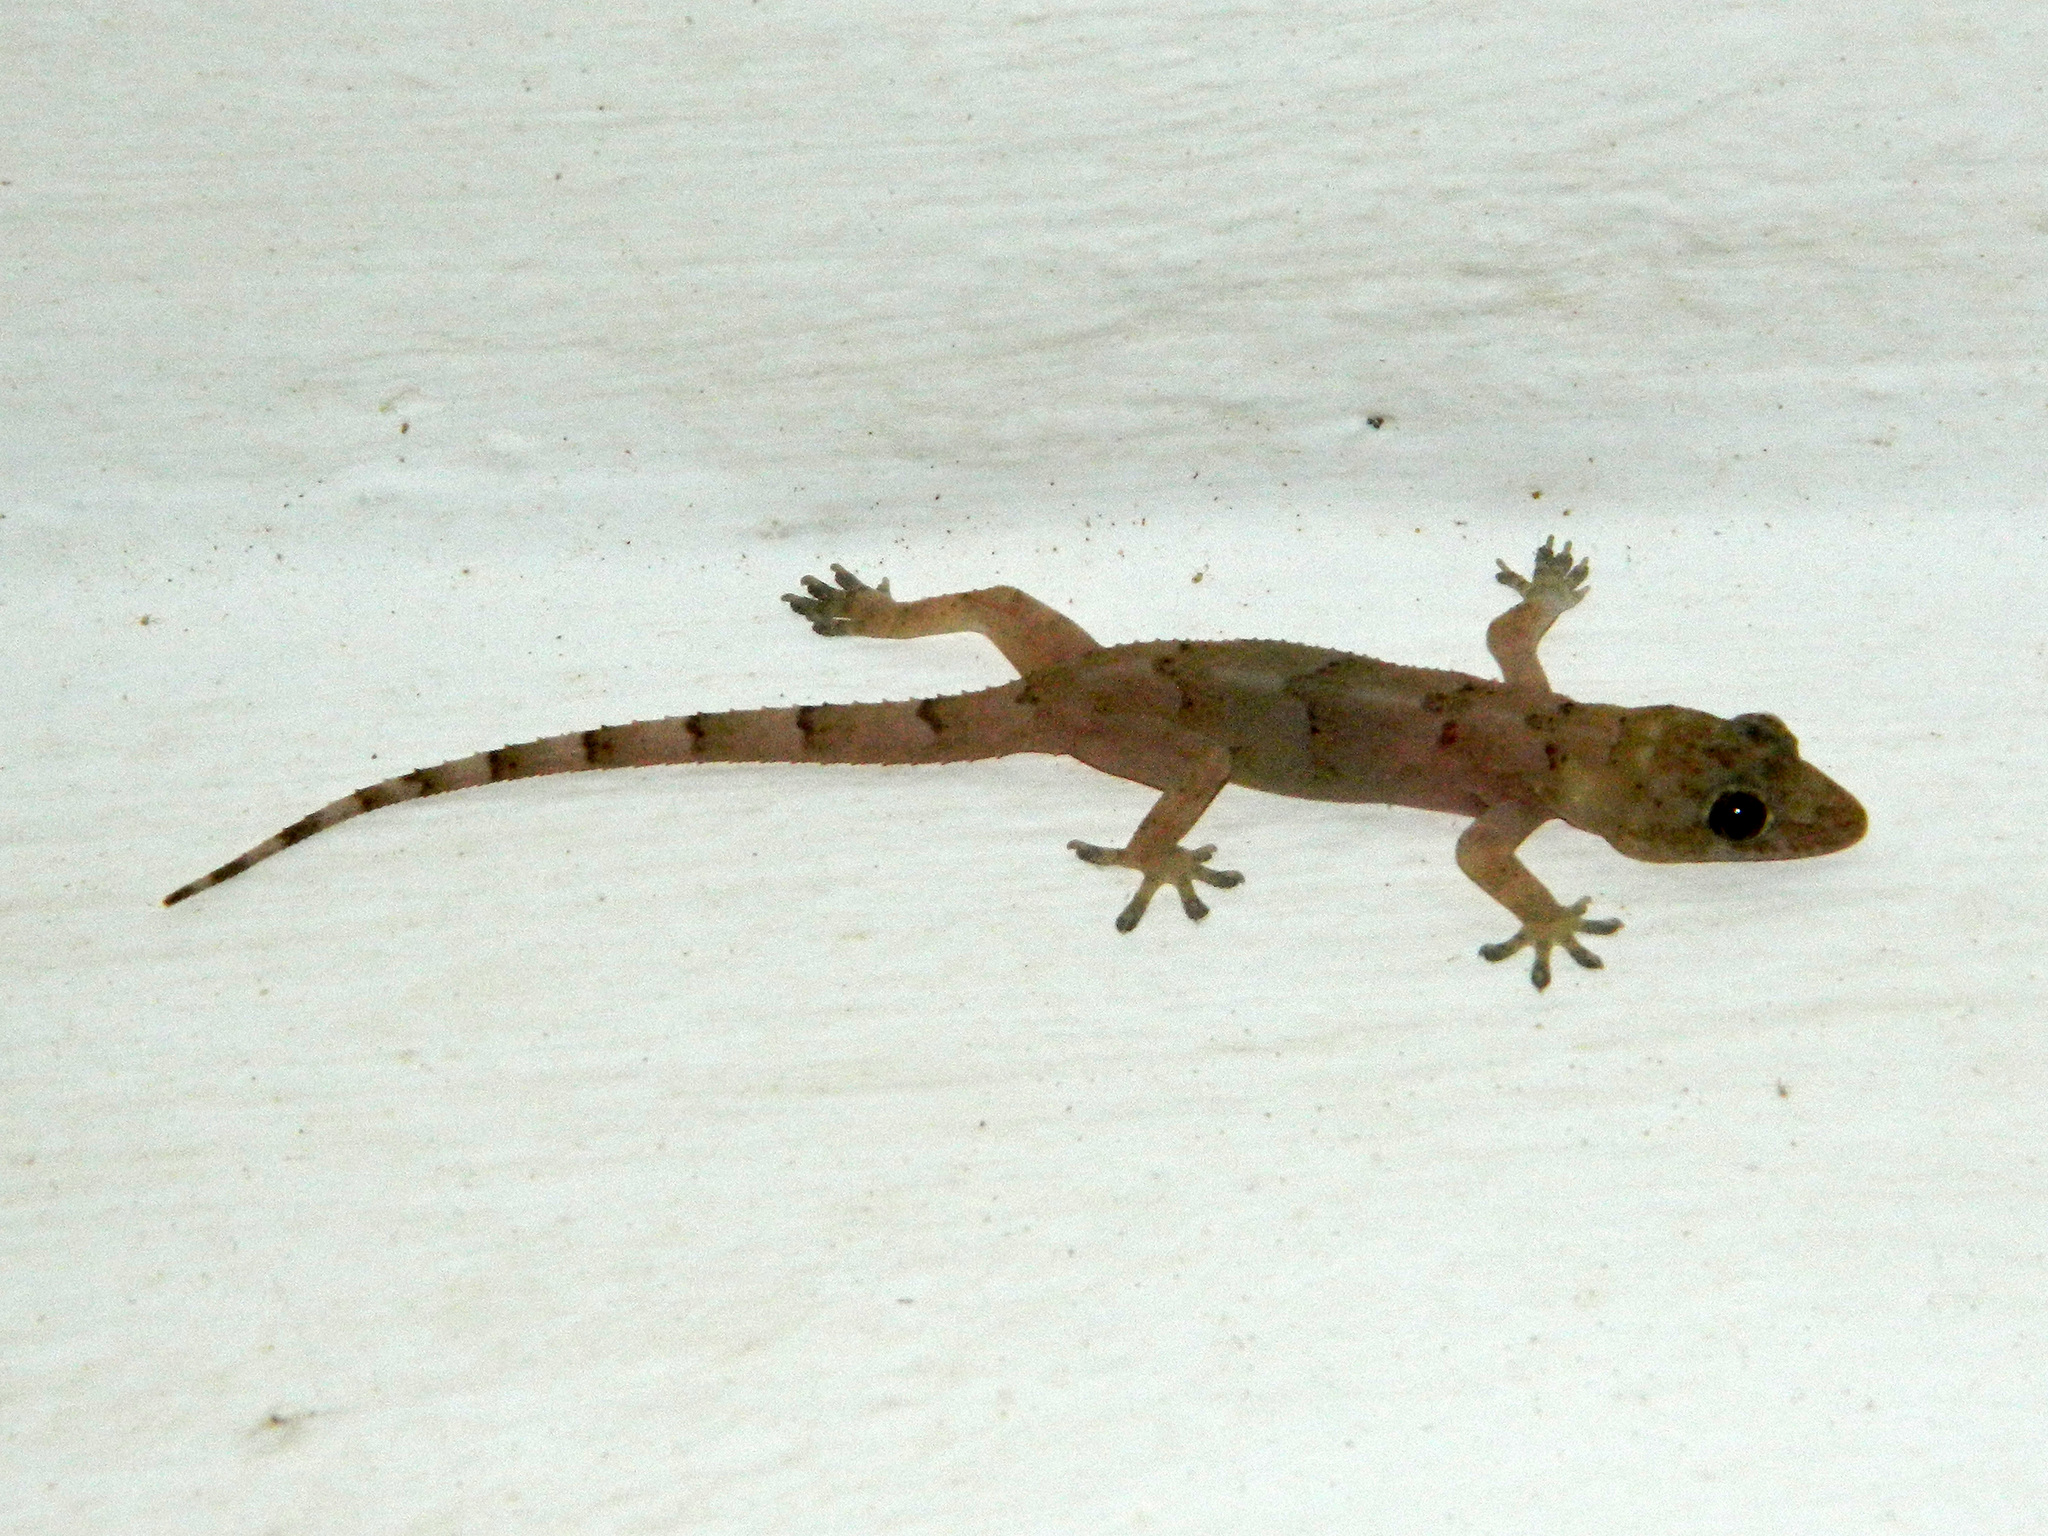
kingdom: Animalia
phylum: Chordata
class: Squamata
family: Gekkonidae
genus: Hemidactylus
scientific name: Hemidactylus mabouia
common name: House gecko
